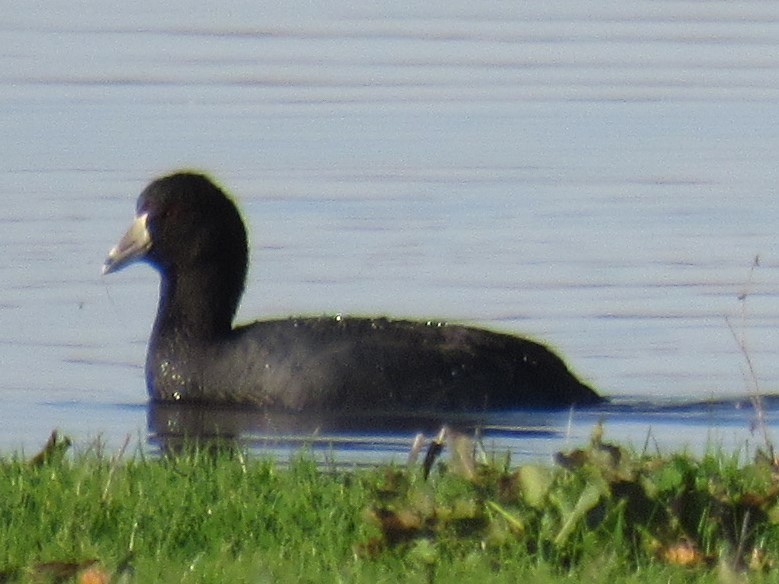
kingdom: Animalia
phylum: Chordata
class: Aves
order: Gruiformes
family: Rallidae
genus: Fulica
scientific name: Fulica americana
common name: American coot
